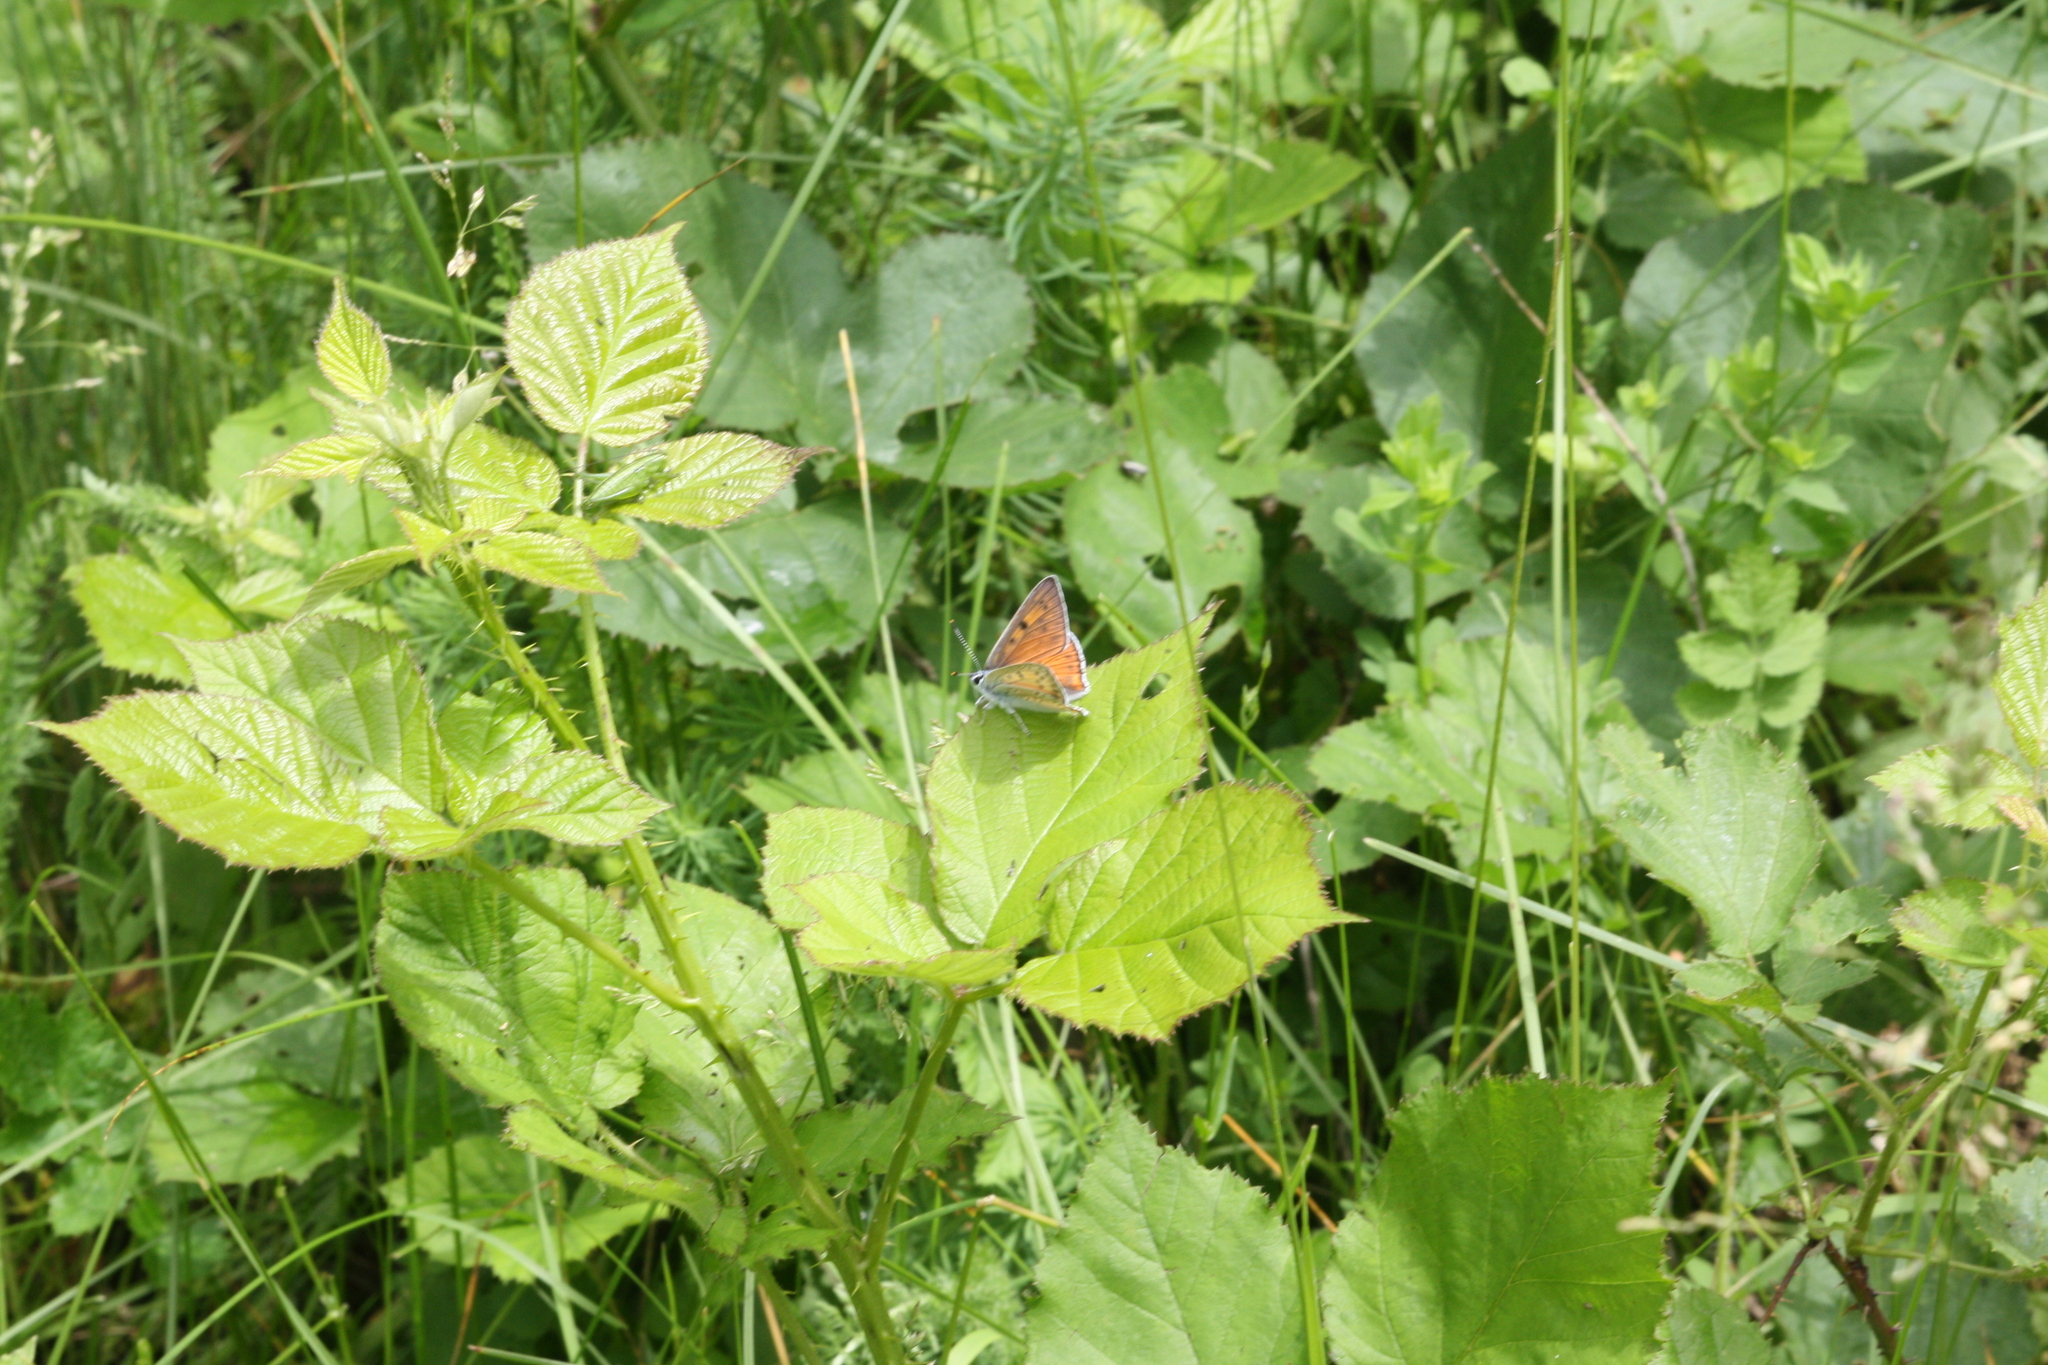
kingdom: Animalia
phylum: Arthropoda
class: Insecta
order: Lepidoptera
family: Lycaenidae
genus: Lycaena
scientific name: Lycaena alciphron
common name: Purple-shot copper
